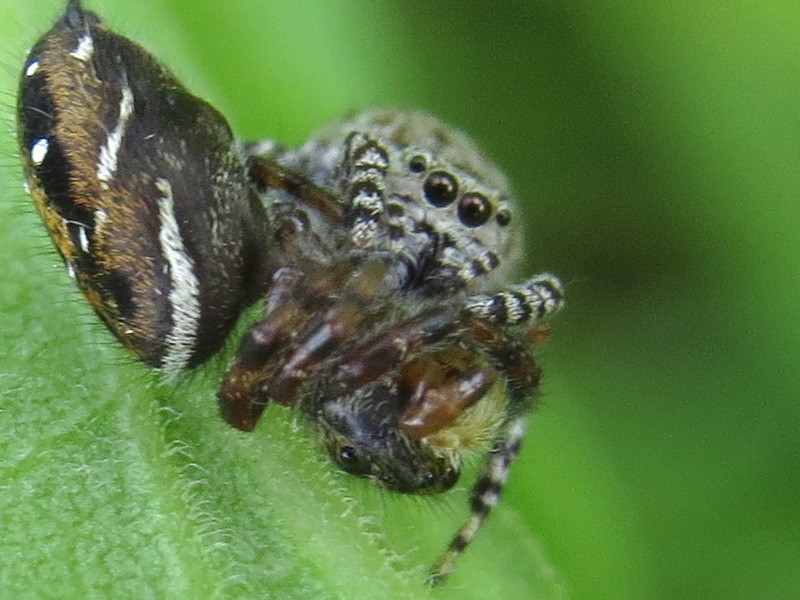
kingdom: Animalia
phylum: Arthropoda
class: Arachnida
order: Araneae
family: Salticidae
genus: Pelegrina
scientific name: Pelegrina galathea
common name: Jumping spiders
